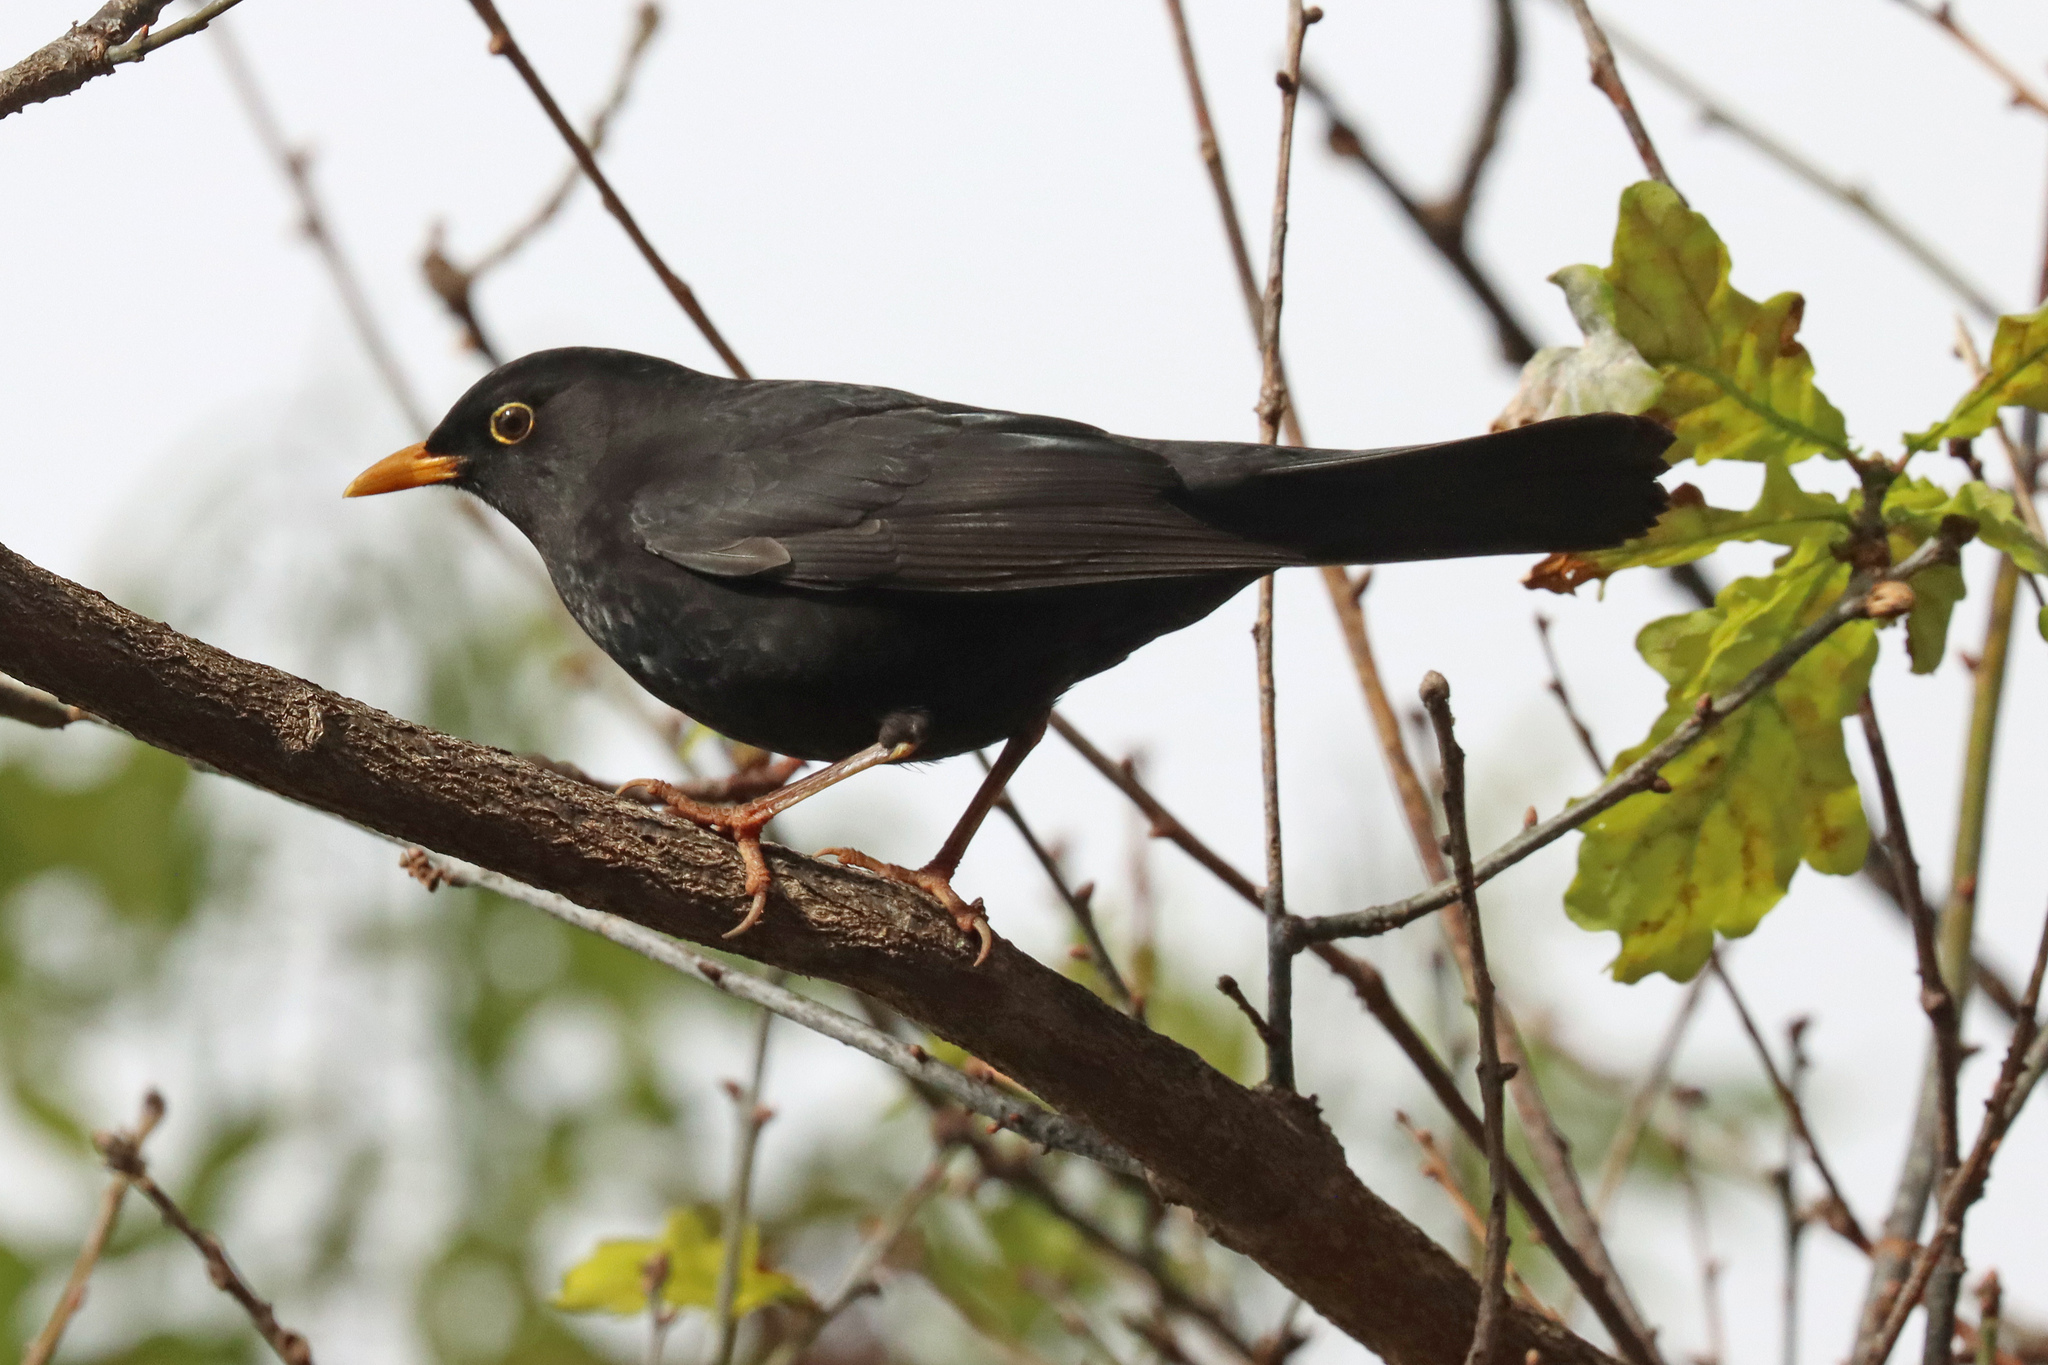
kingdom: Animalia
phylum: Chordata
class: Aves
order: Passeriformes
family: Turdidae
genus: Turdus
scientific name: Turdus merula
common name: Common blackbird
